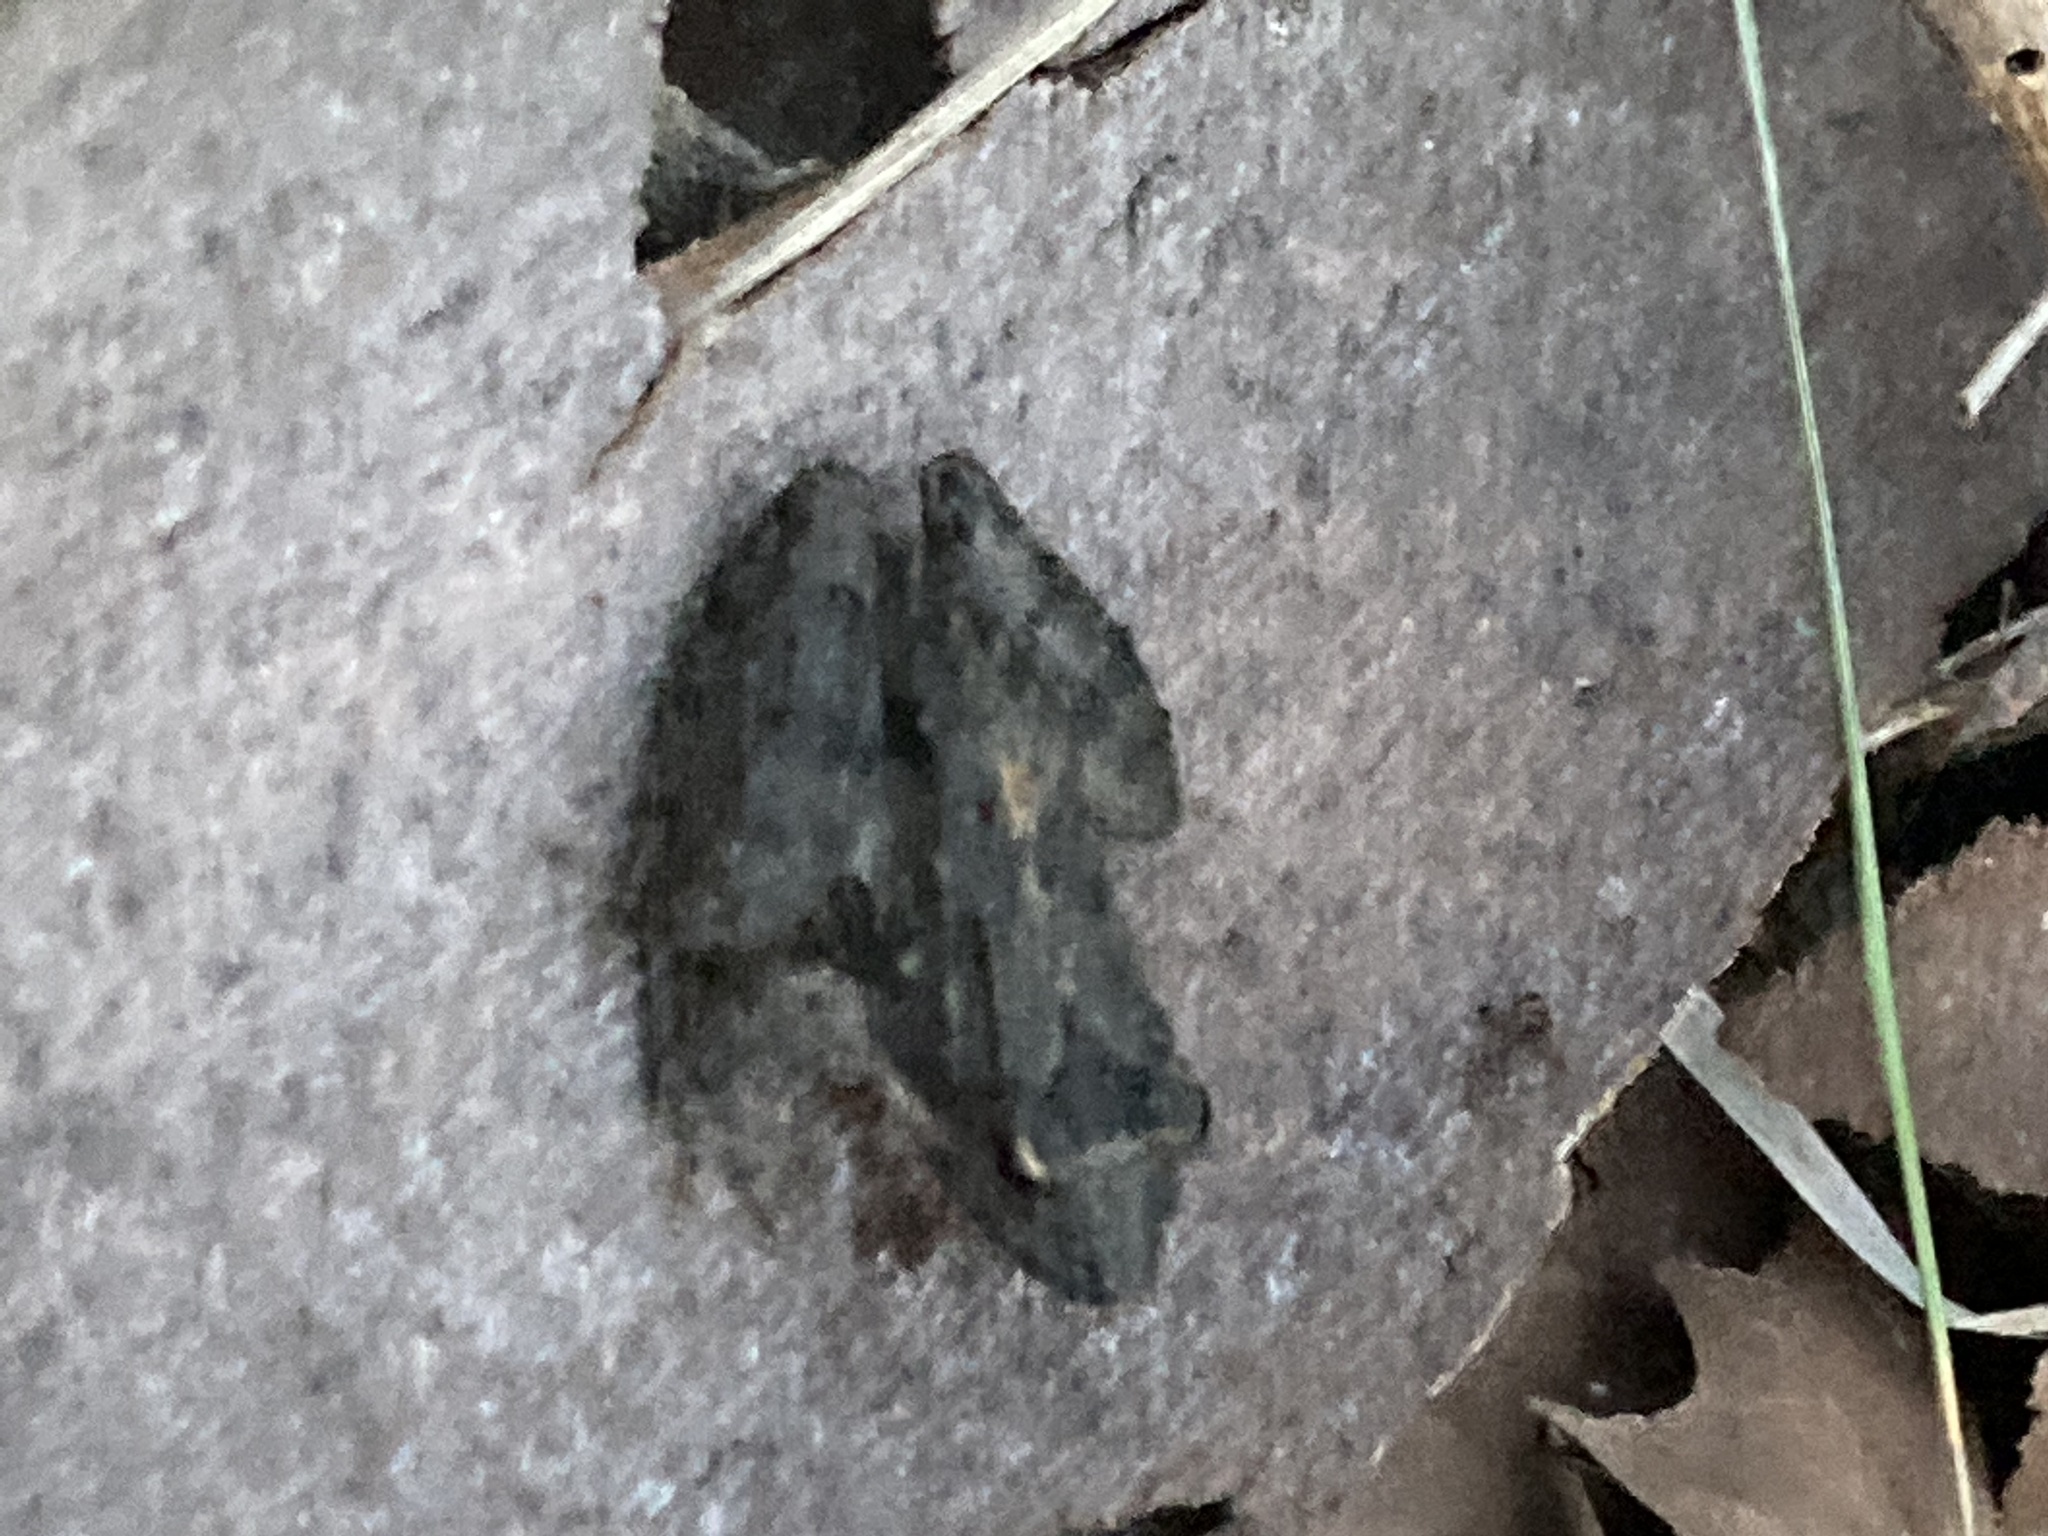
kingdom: Animalia
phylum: Chordata
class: Amphibia
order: Anura
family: Hylidae
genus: Acris
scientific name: Acris blanchardi
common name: Blanchard's cricket frog
